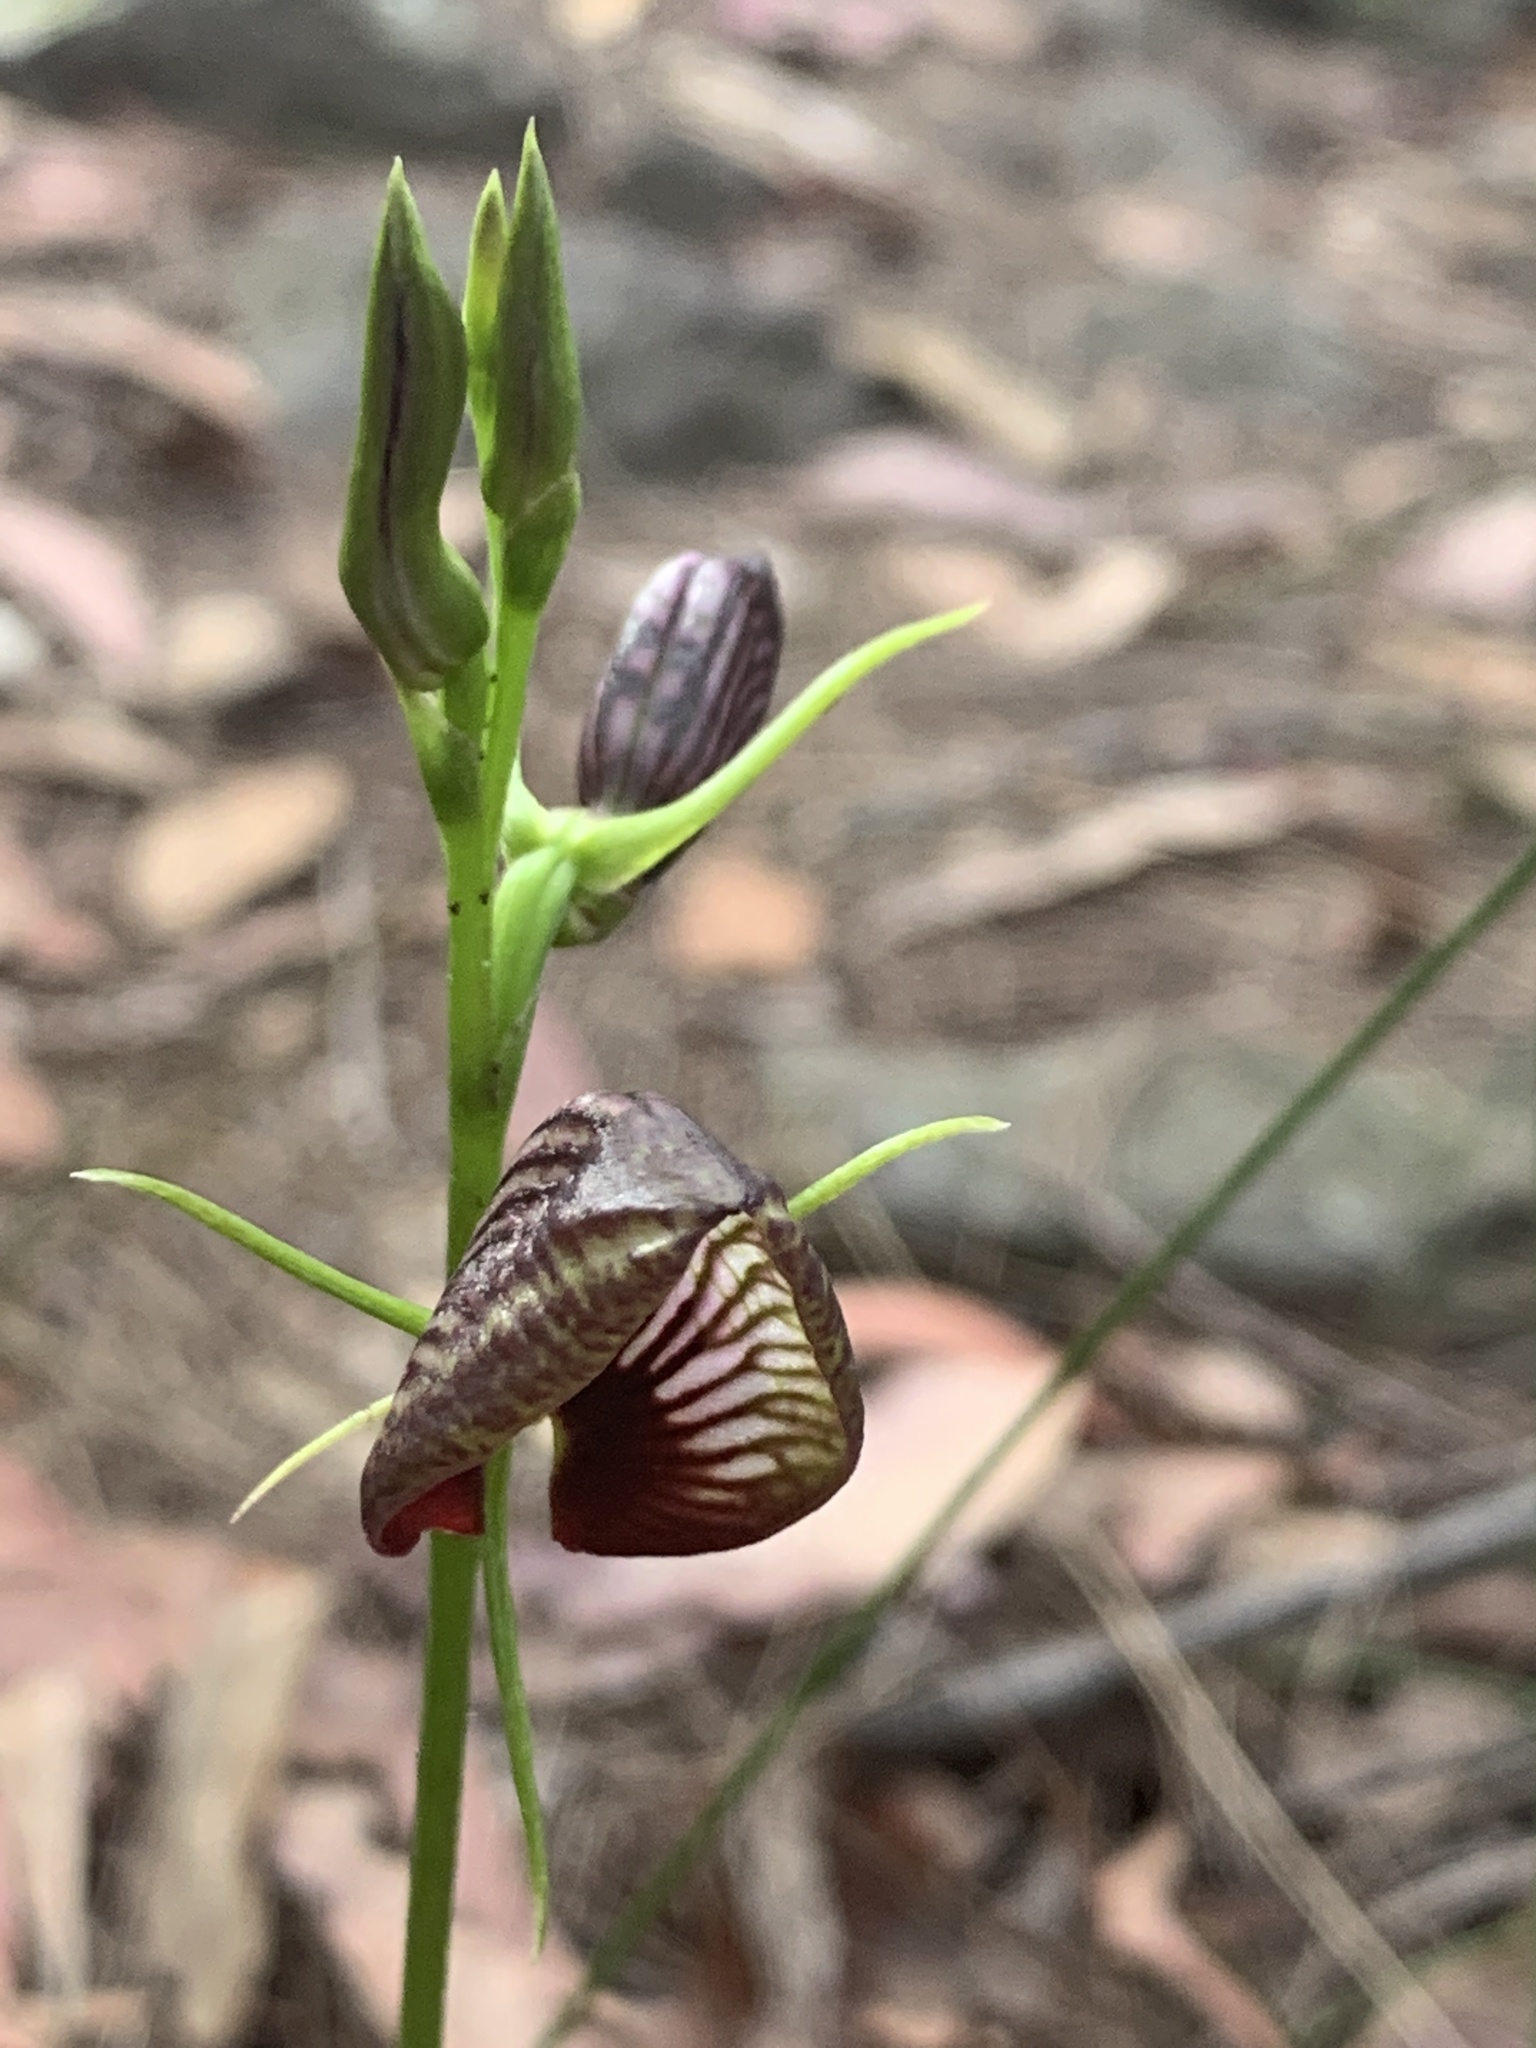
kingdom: Plantae
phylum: Tracheophyta
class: Liliopsida
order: Asparagales
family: Orchidaceae
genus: Cryptostylis
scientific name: Cryptostylis erecta
